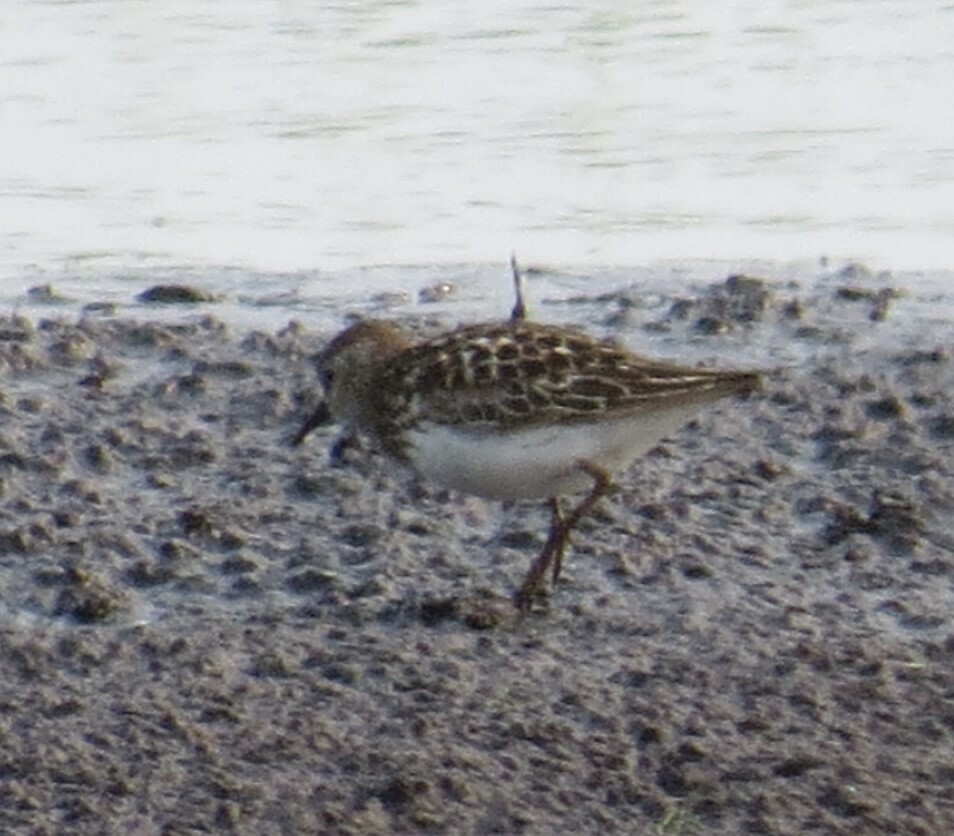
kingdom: Animalia
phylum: Chordata
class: Aves
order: Charadriiformes
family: Scolopacidae
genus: Calidris
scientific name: Calidris minutilla
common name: Least sandpiper
